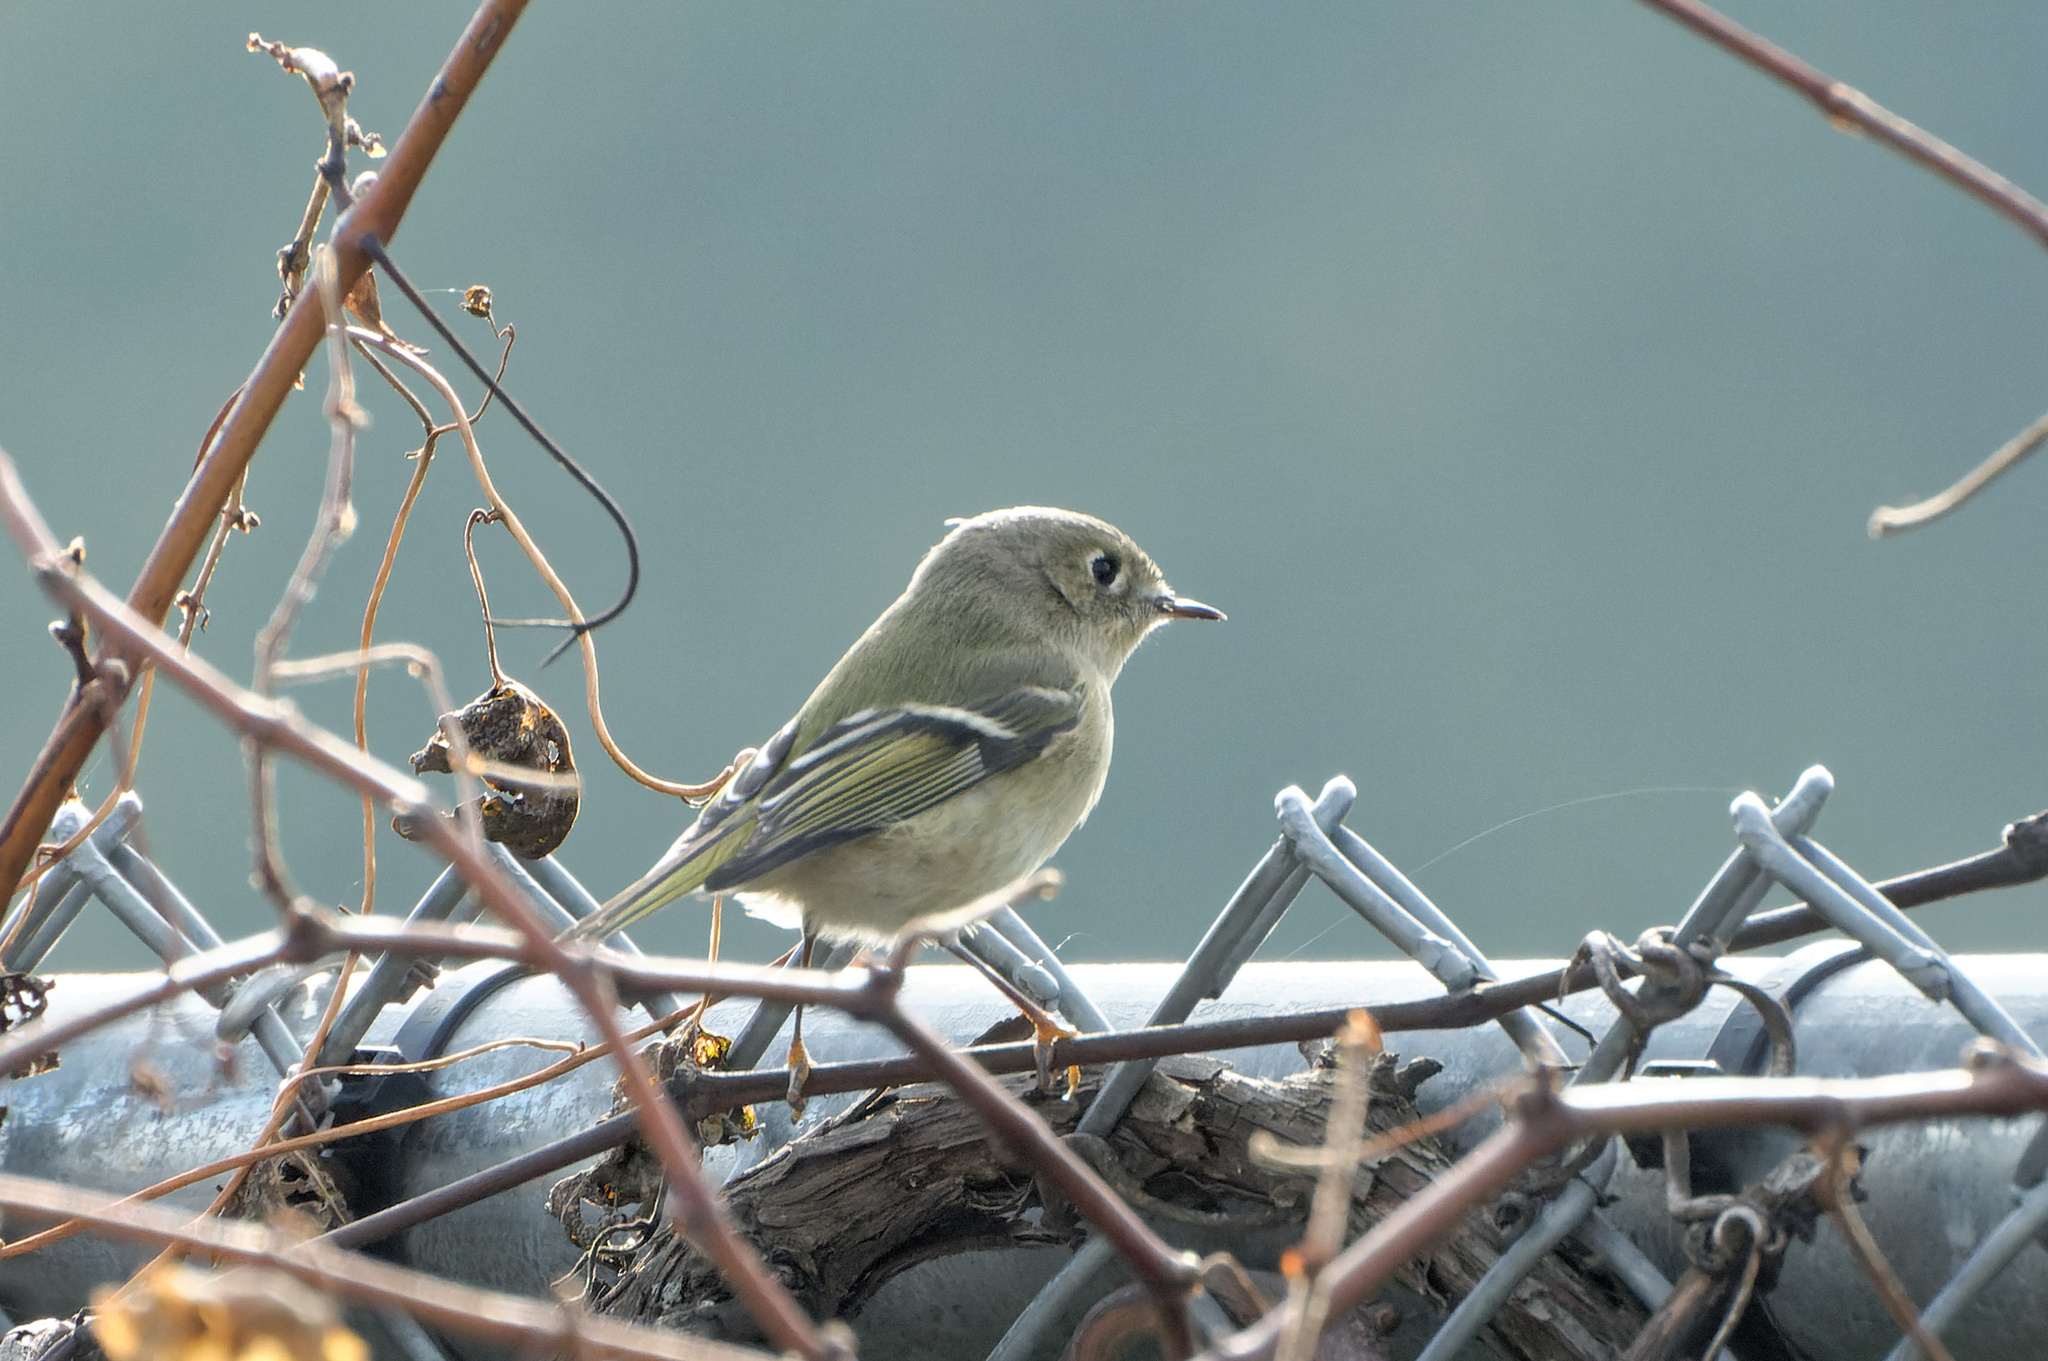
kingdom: Animalia
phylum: Chordata
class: Aves
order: Passeriformes
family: Regulidae
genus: Regulus
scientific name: Regulus calendula
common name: Ruby-crowned kinglet
